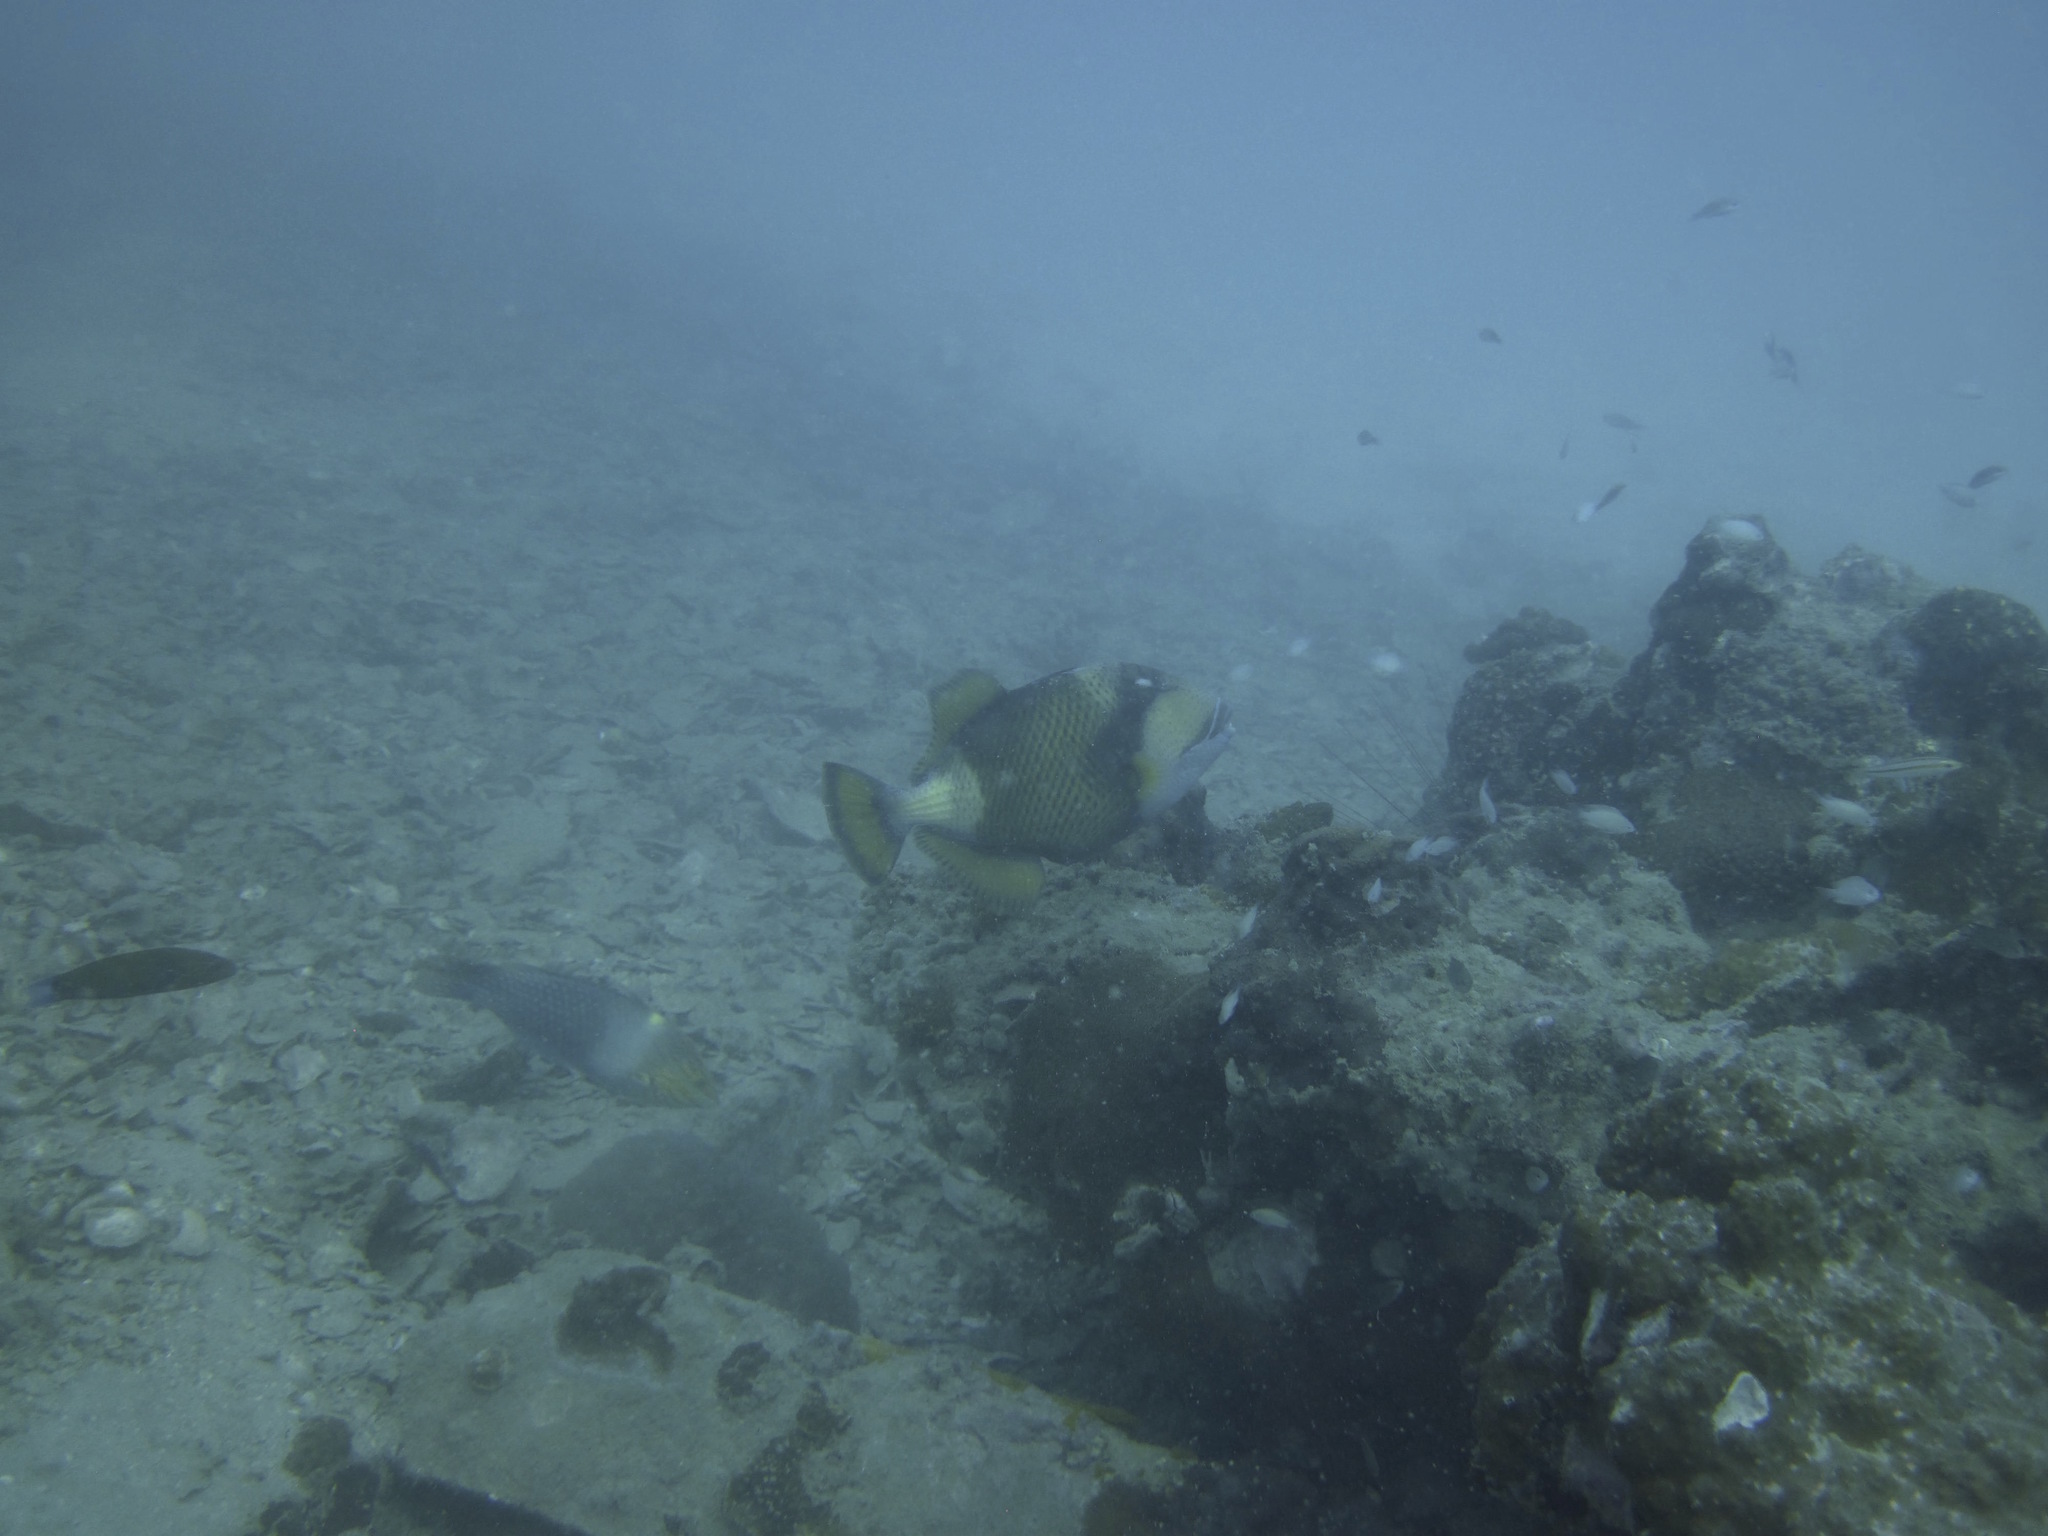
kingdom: Animalia
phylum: Chordata
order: Tetraodontiformes
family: Balistidae
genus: Balistoides
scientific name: Balistoides viridescens
